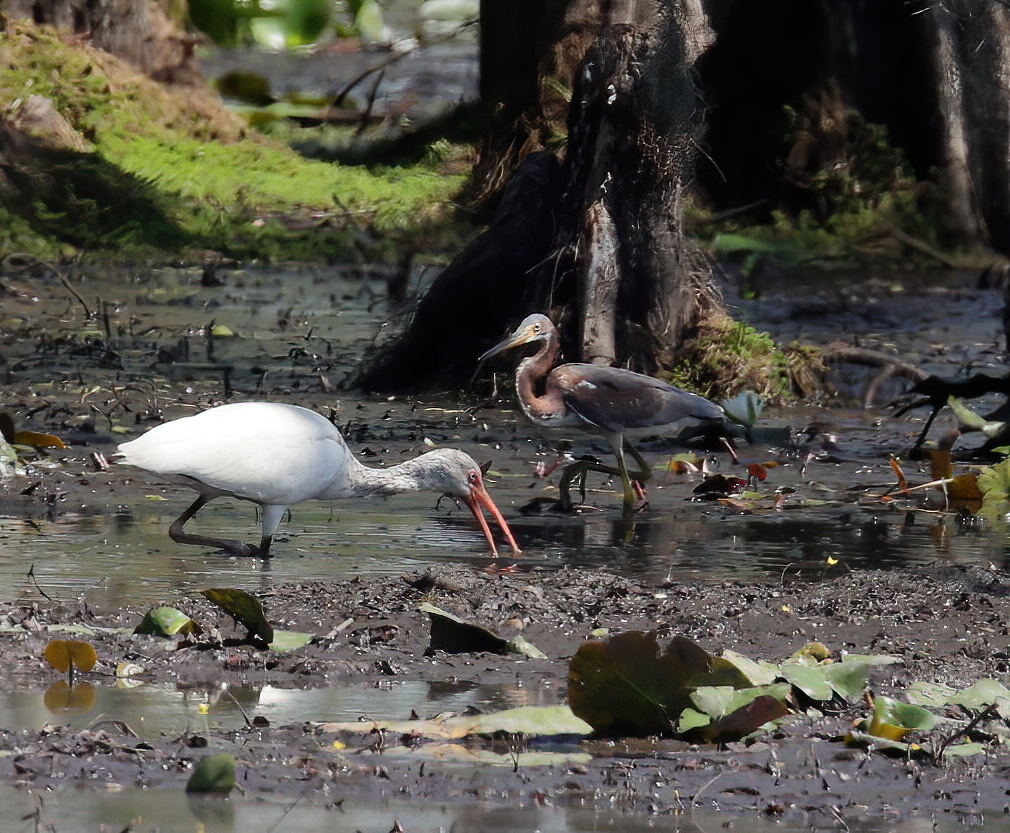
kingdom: Animalia
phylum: Chordata
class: Aves
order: Pelecaniformes
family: Ardeidae
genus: Egretta
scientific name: Egretta tricolor
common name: Tricolored heron
